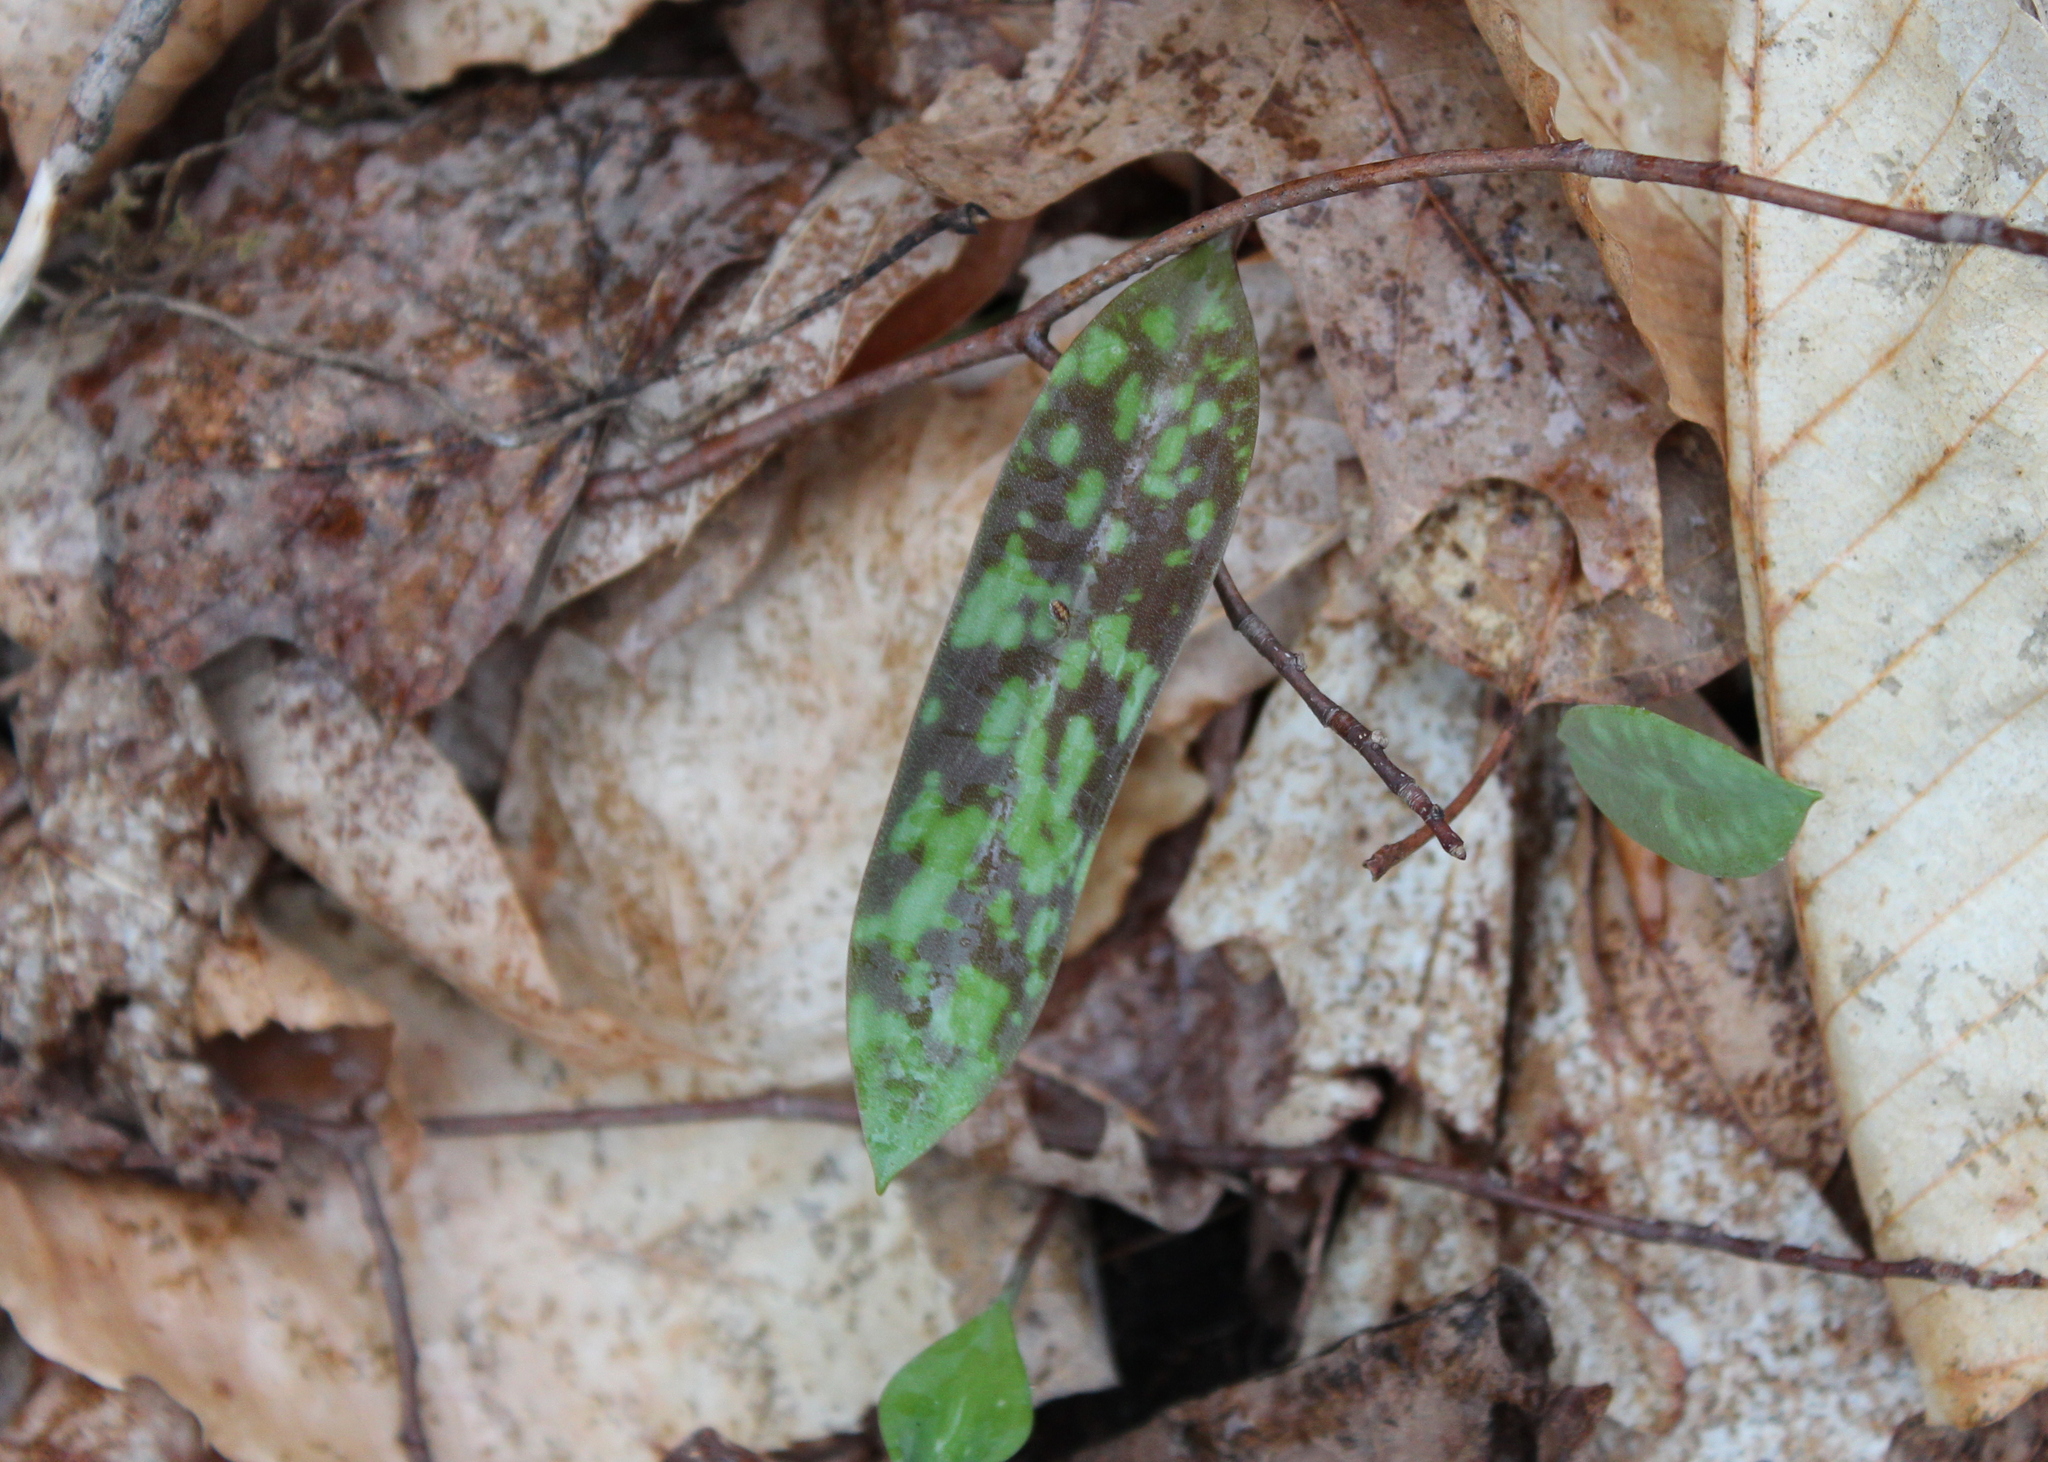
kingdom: Plantae
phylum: Tracheophyta
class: Liliopsida
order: Liliales
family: Liliaceae
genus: Erythronium
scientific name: Erythronium americanum
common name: Yellow adder's-tongue
